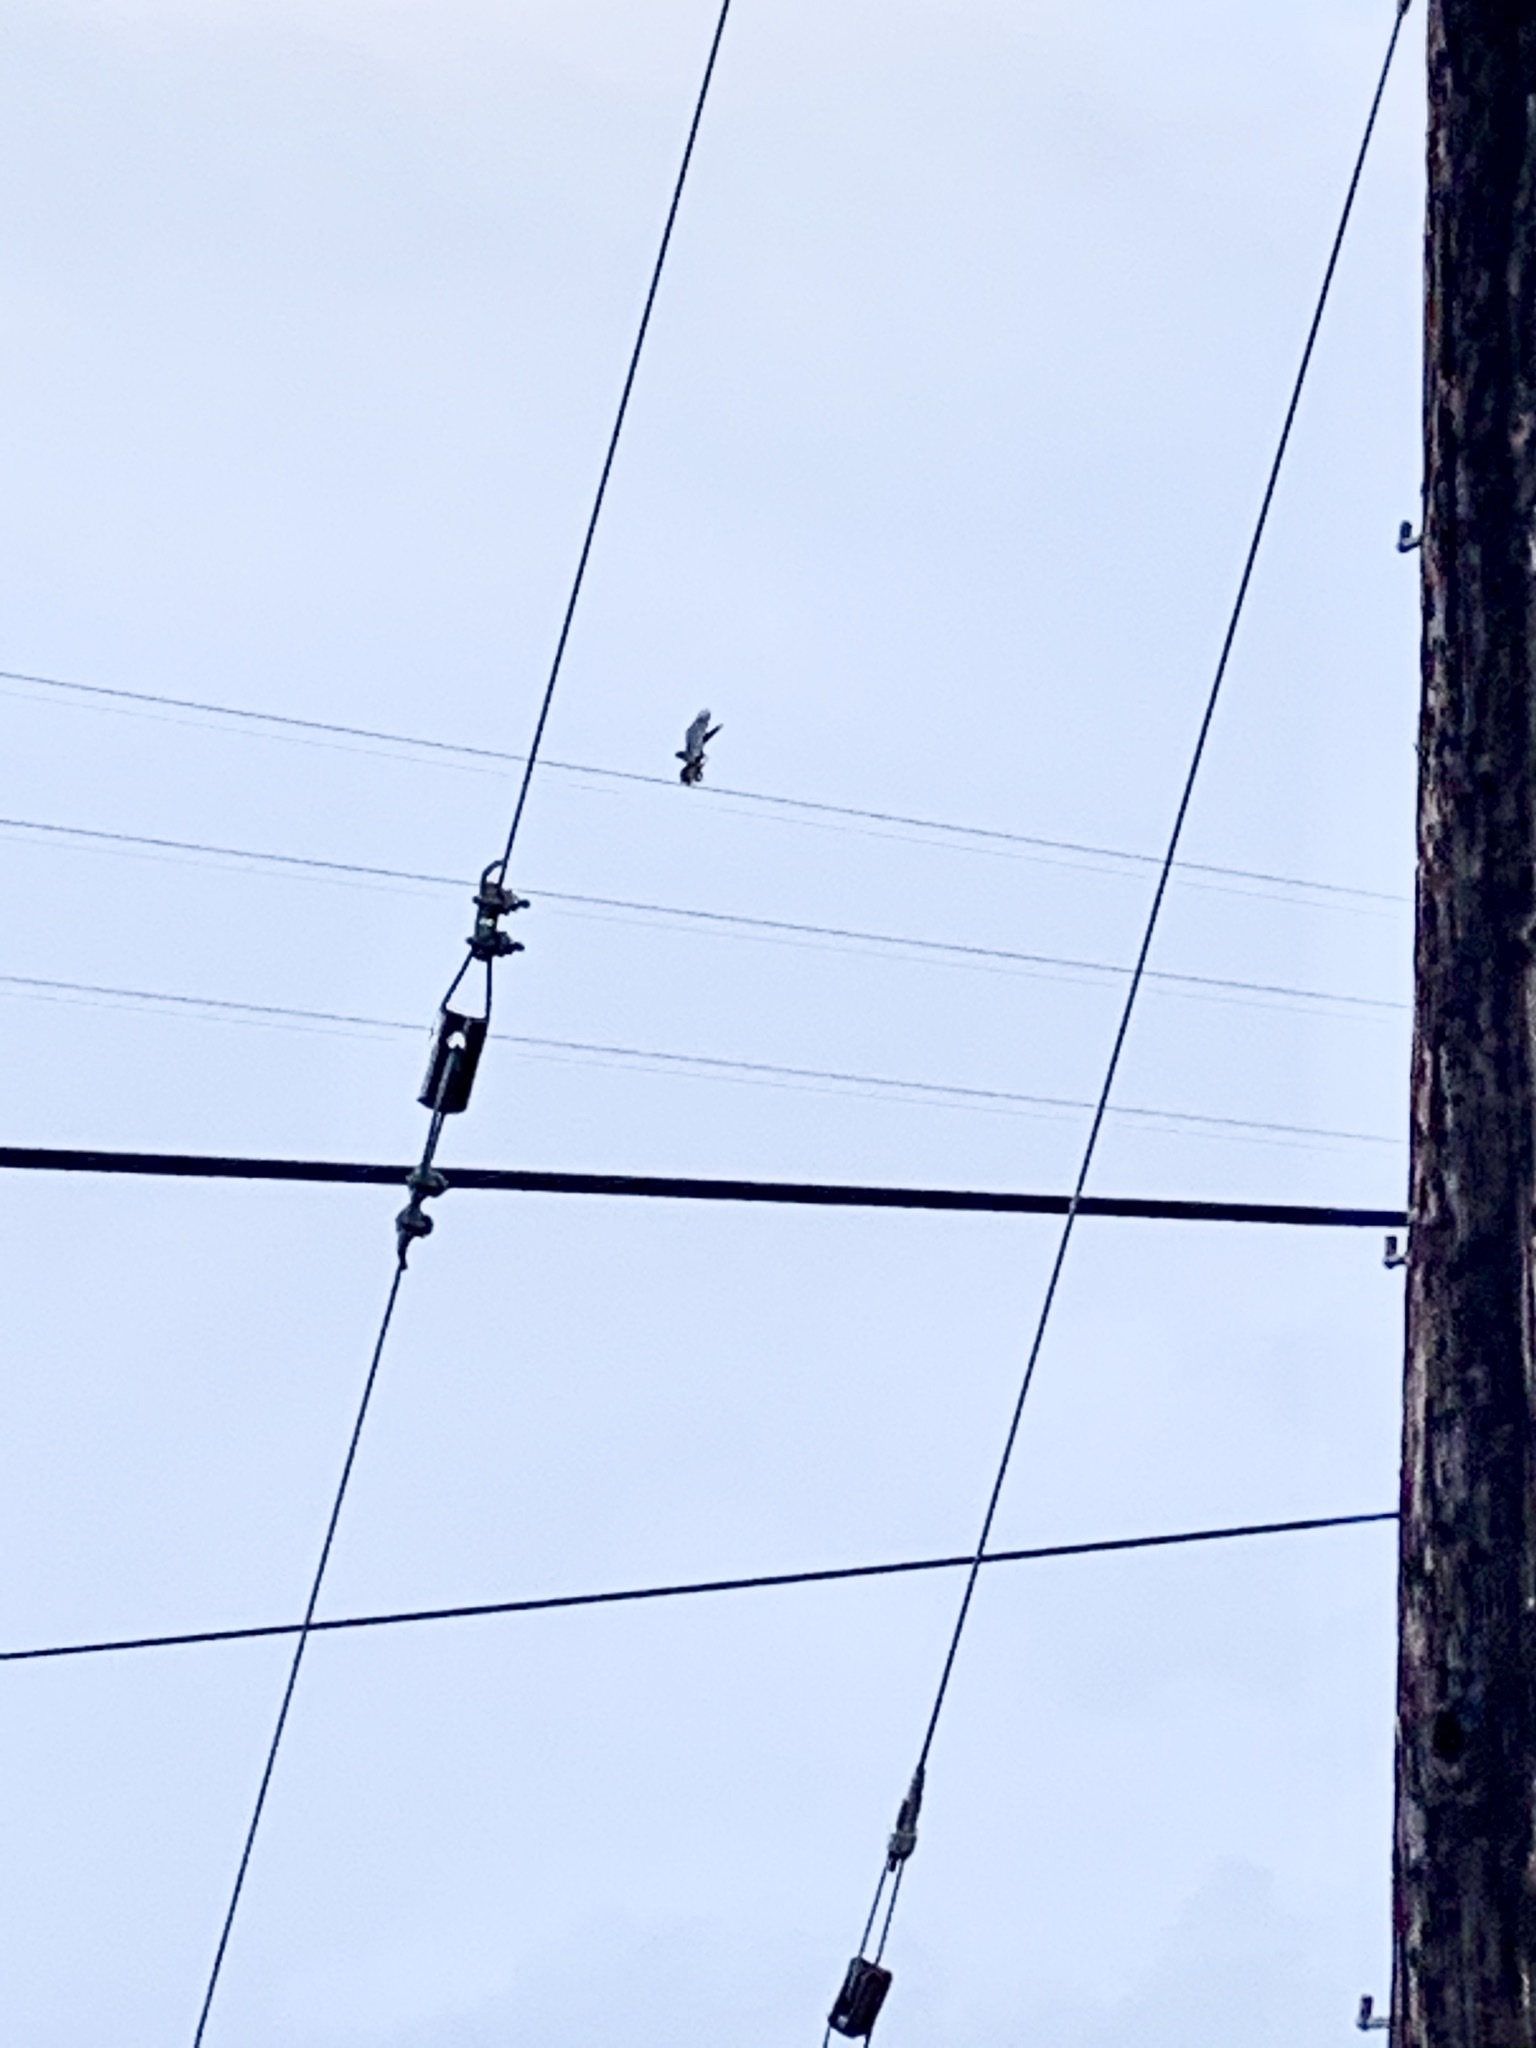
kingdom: Animalia
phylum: Chordata
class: Aves
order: Falconiformes
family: Falconidae
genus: Falco
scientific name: Falco sparverius
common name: American kestrel
